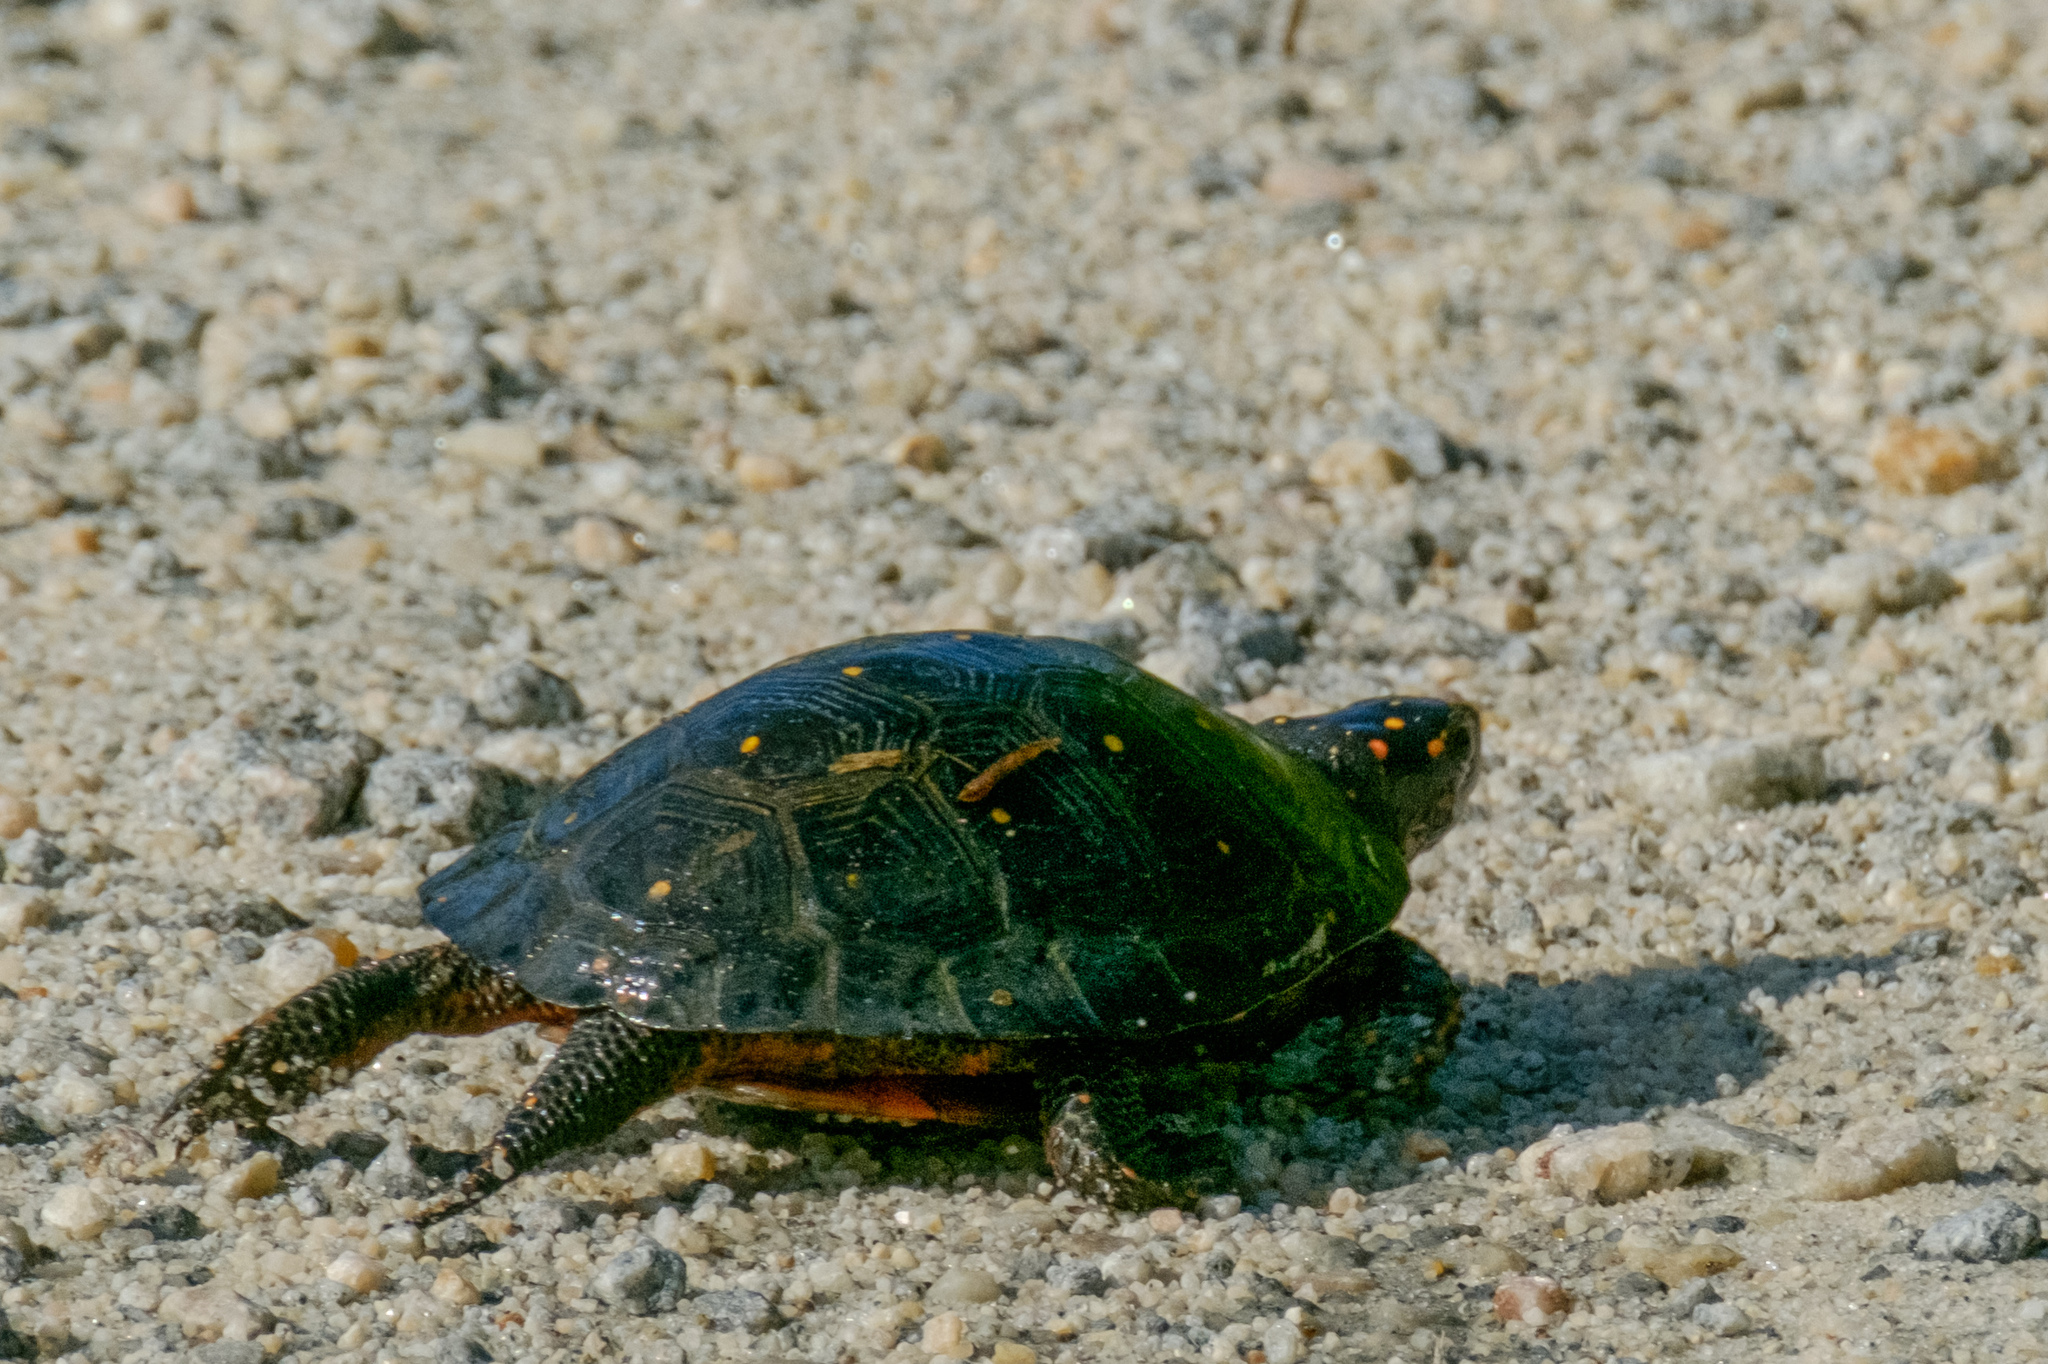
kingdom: Animalia
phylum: Chordata
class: Testudines
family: Emydidae
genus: Clemmys
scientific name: Clemmys guttata
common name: Spotted turtle
